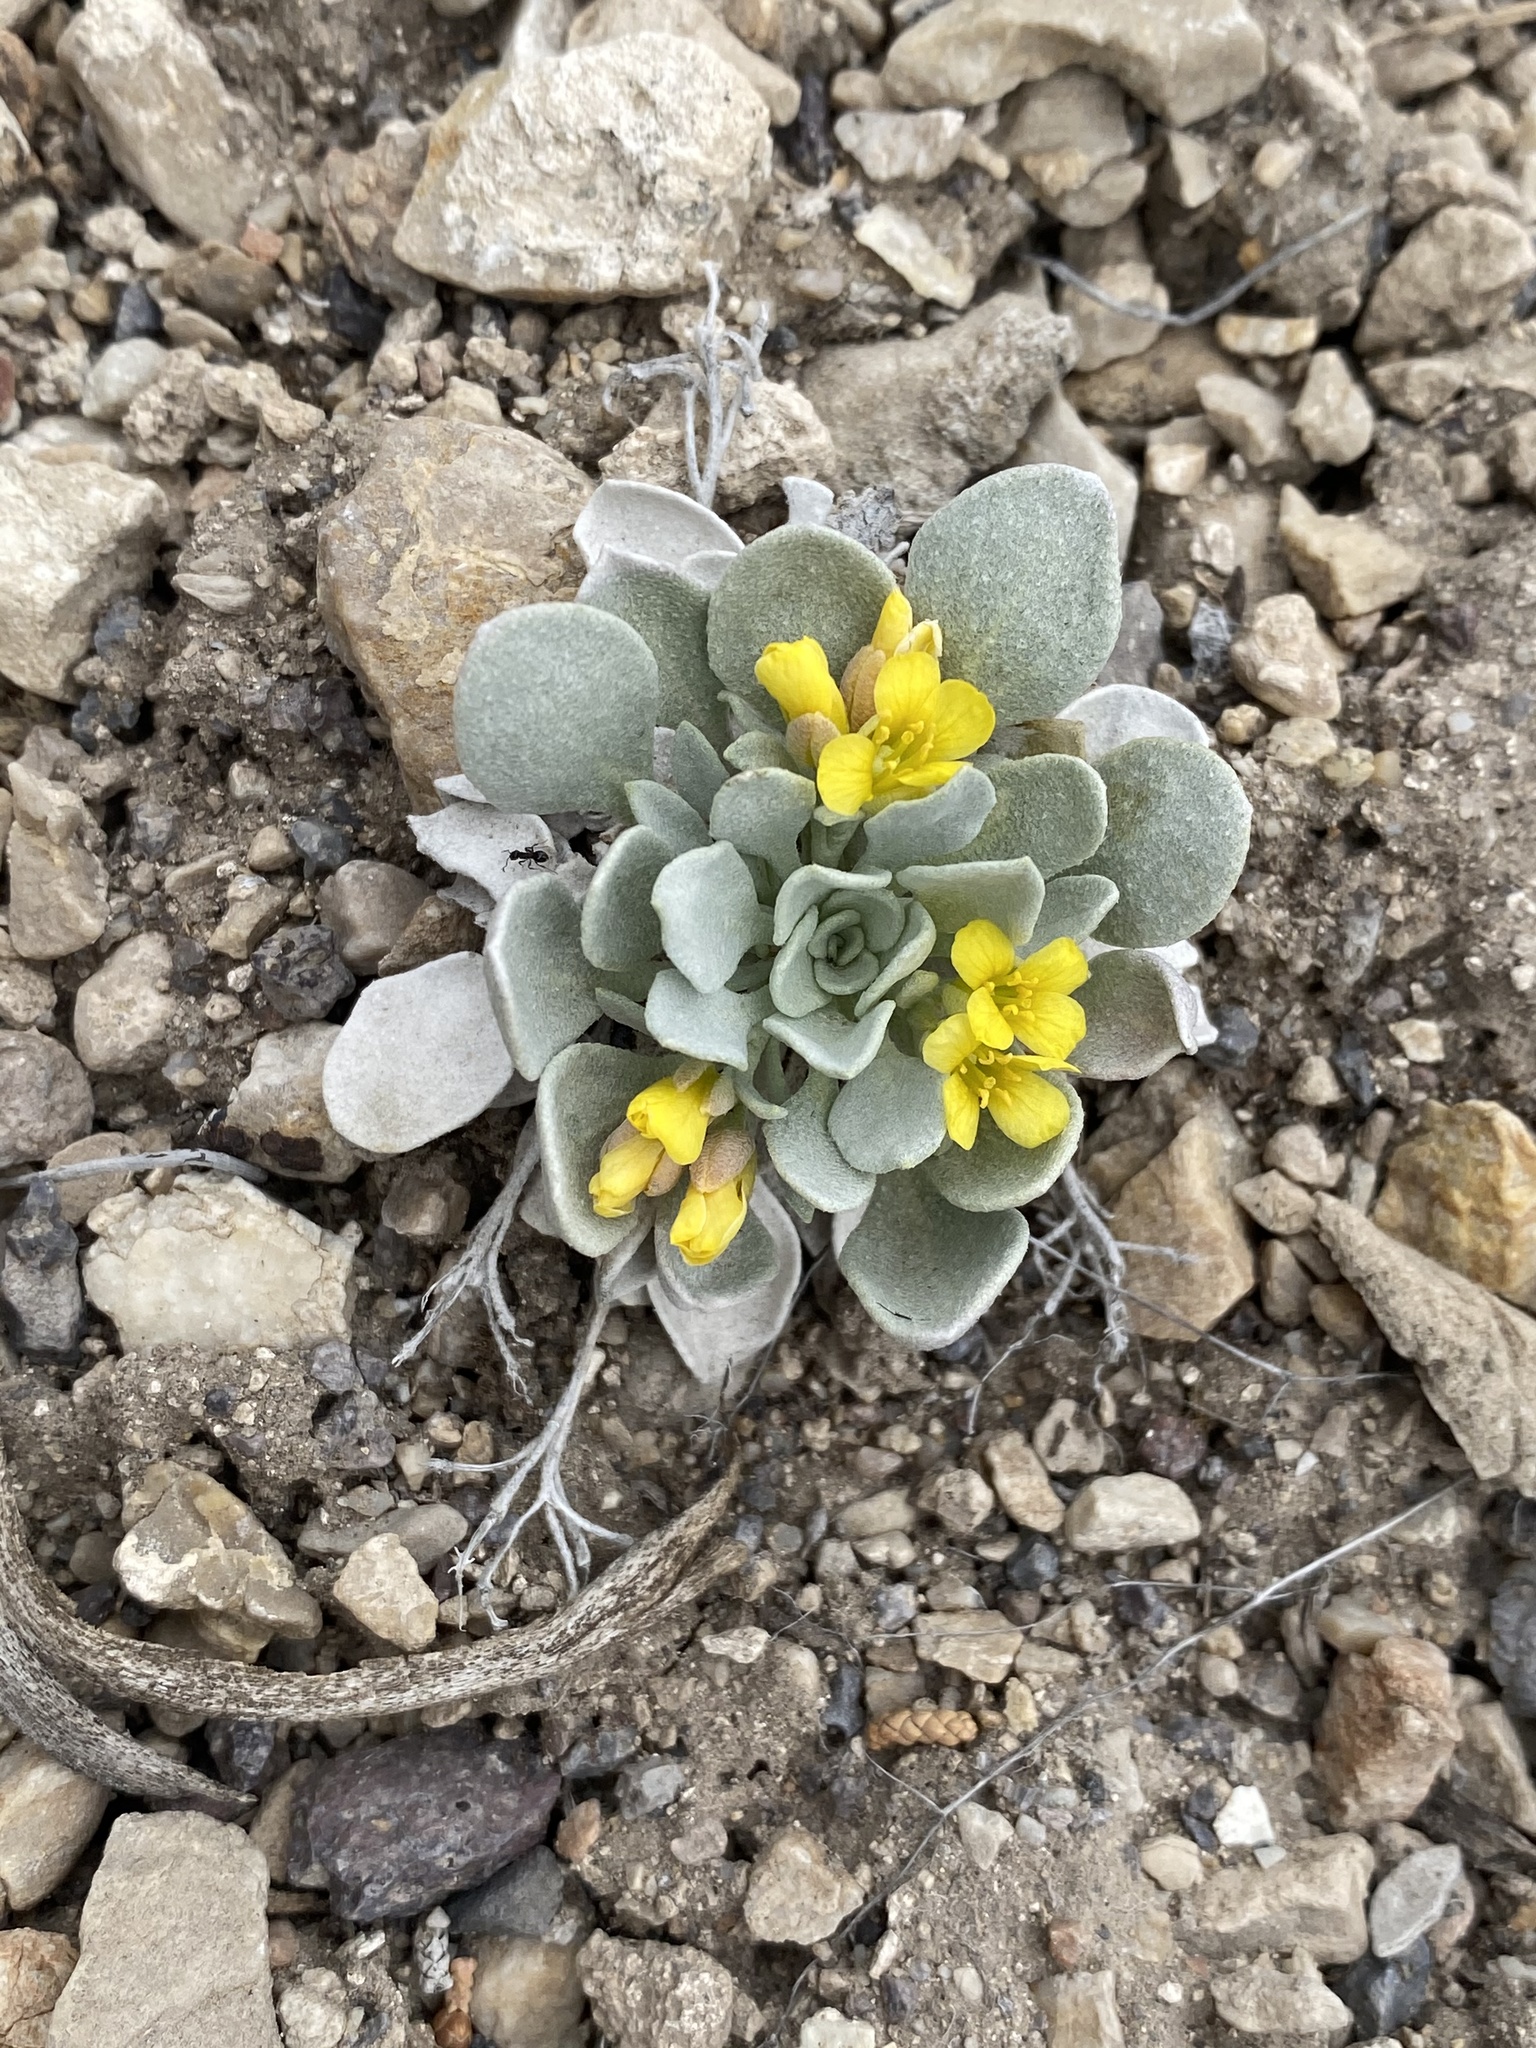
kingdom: Plantae
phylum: Tracheophyta
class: Magnoliopsida
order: Brassicales
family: Brassicaceae
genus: Physaria
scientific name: Physaria chambersii
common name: Chamber's twinpod
